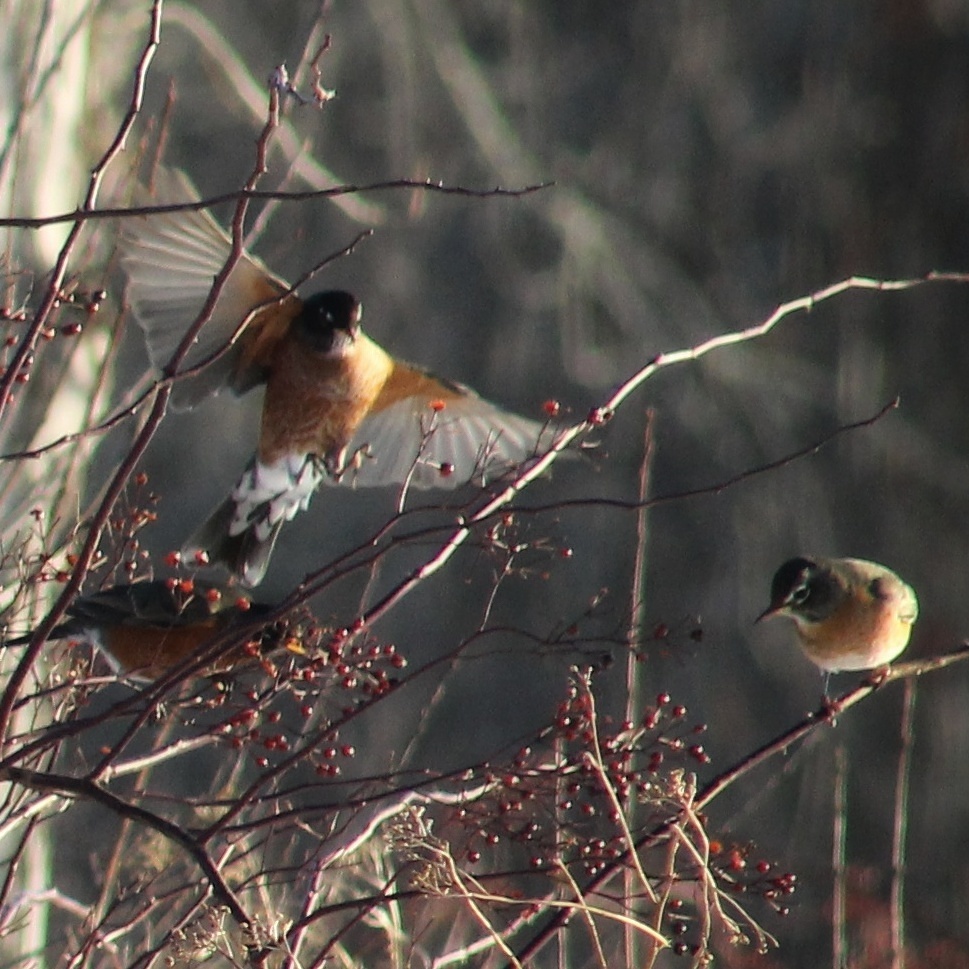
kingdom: Animalia
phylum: Chordata
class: Aves
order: Passeriformes
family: Turdidae
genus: Turdus
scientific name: Turdus migratorius
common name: American robin
